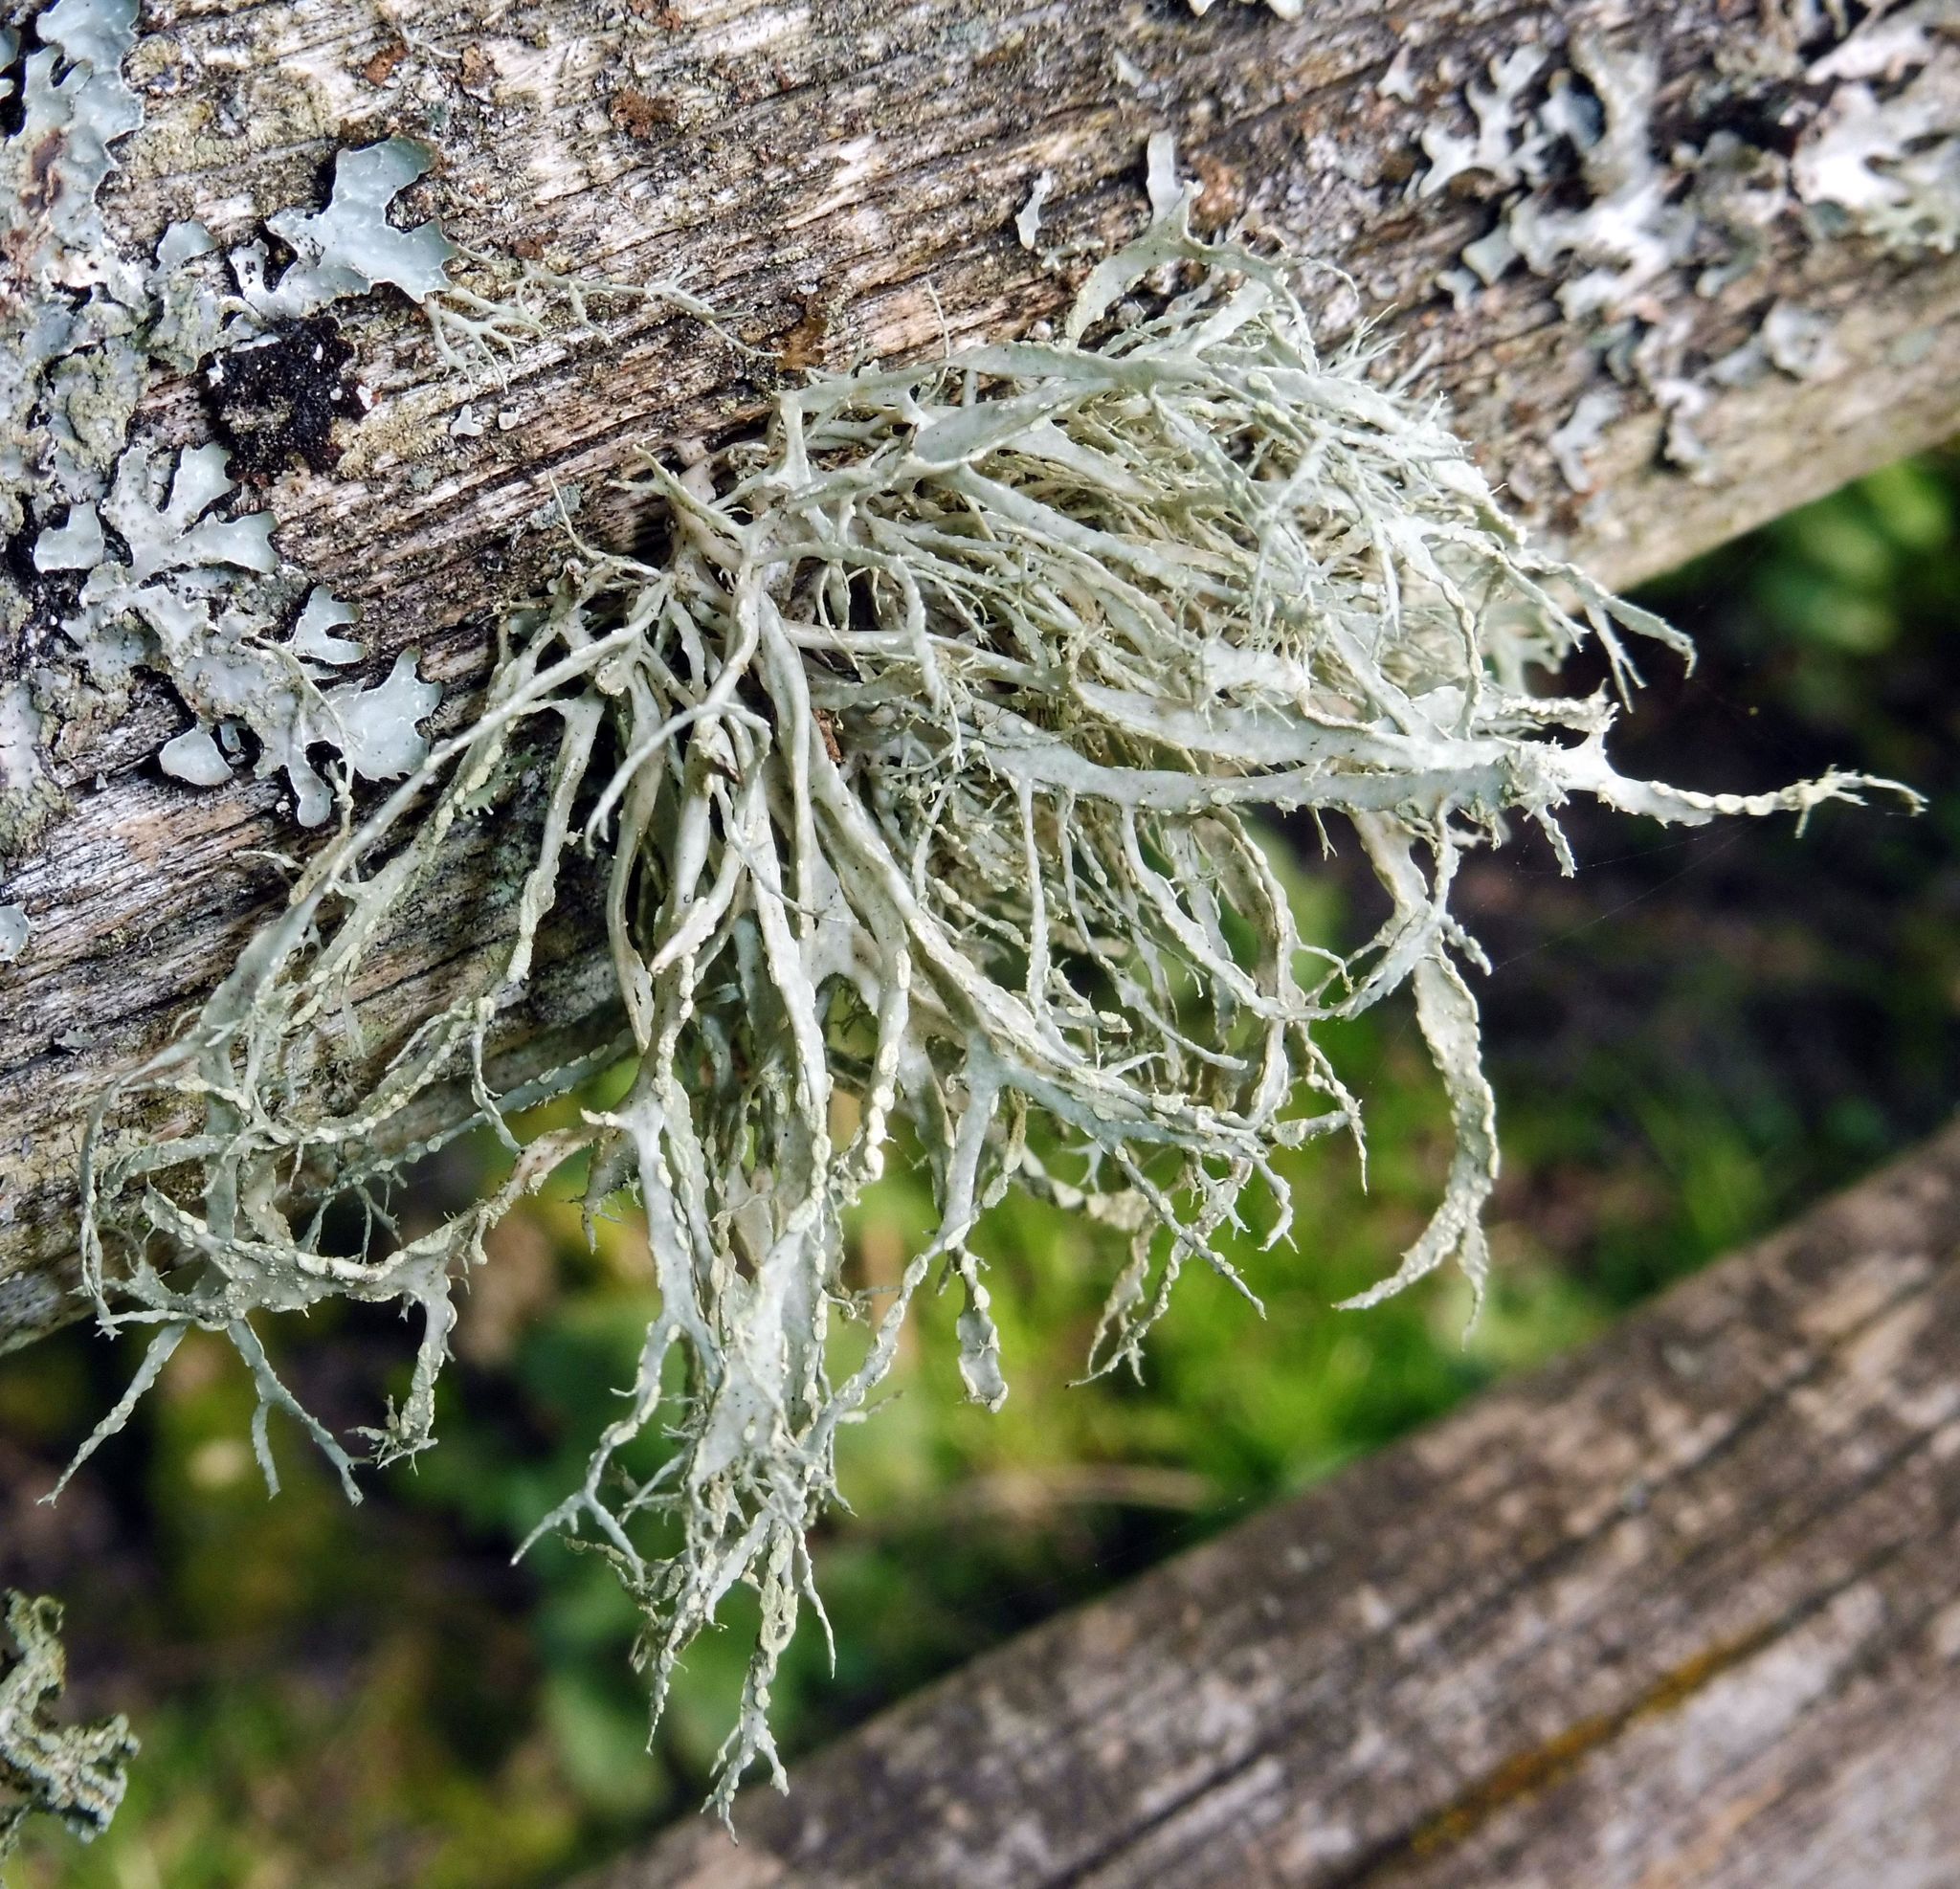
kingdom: Fungi
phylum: Ascomycota
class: Lecanoromycetes
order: Lecanorales
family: Ramalinaceae
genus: Ramalina
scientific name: Ramalina farinacea
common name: Farinose cartilage lichen
